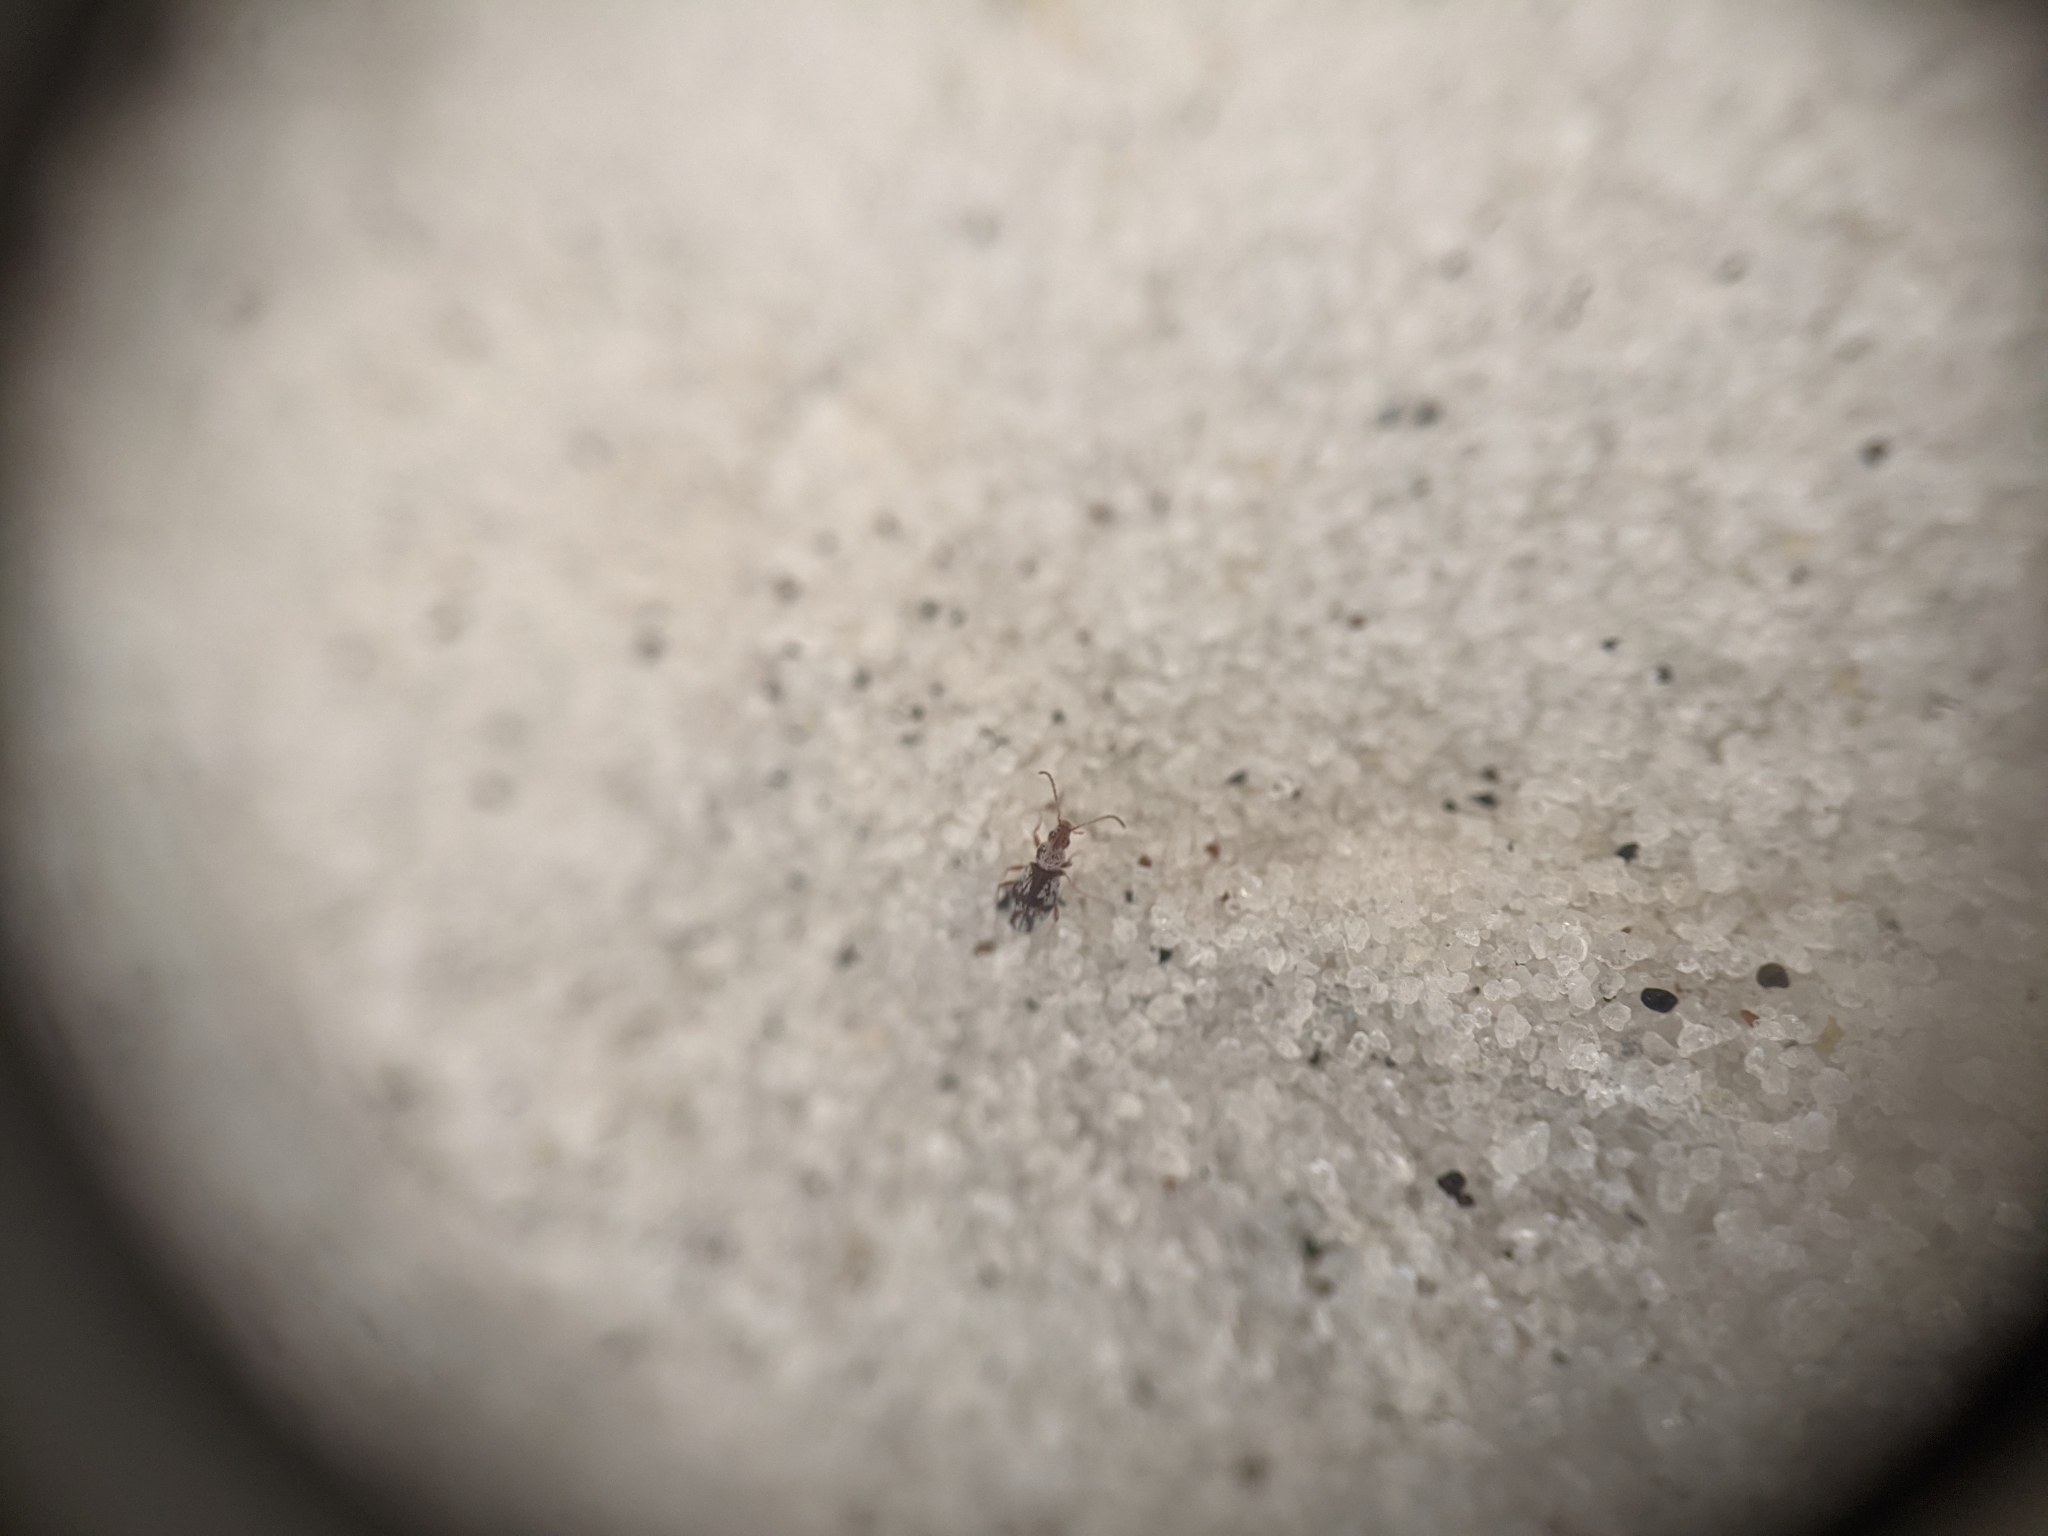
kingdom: Animalia
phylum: Arthropoda
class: Insecta
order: Coleoptera
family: Anthicidae
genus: Squamanotoxus
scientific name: Squamanotoxus elegans
